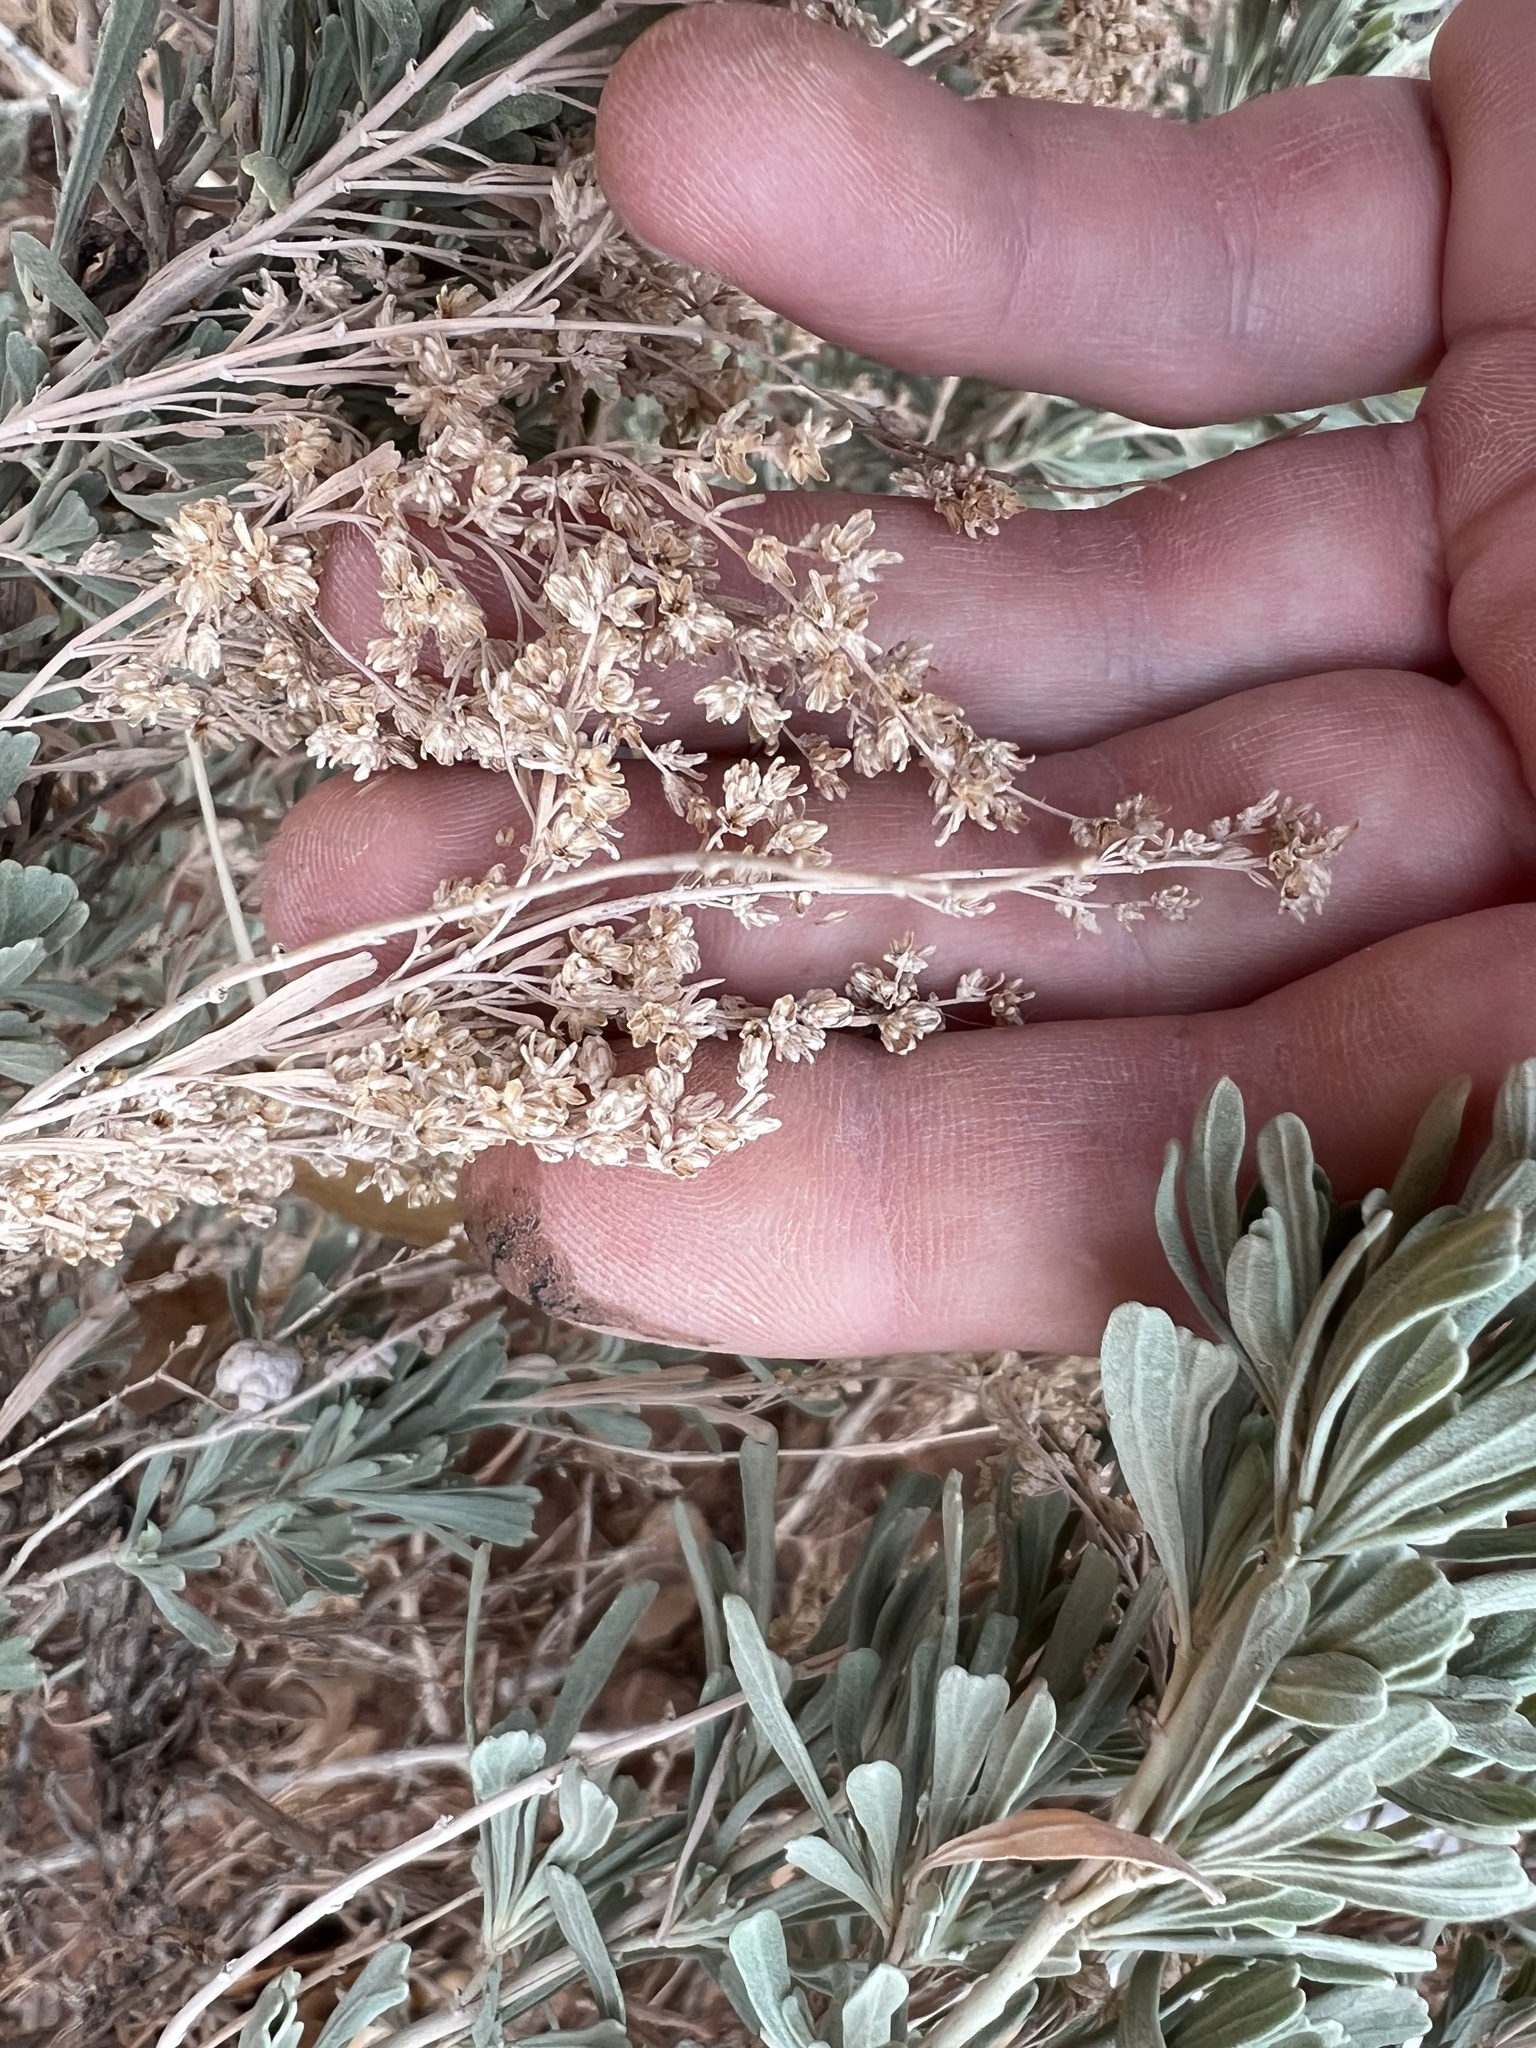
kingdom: Plantae
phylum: Tracheophyta
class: Magnoliopsida
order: Asterales
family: Asteraceae
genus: Artemisia
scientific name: Artemisia tridentata
